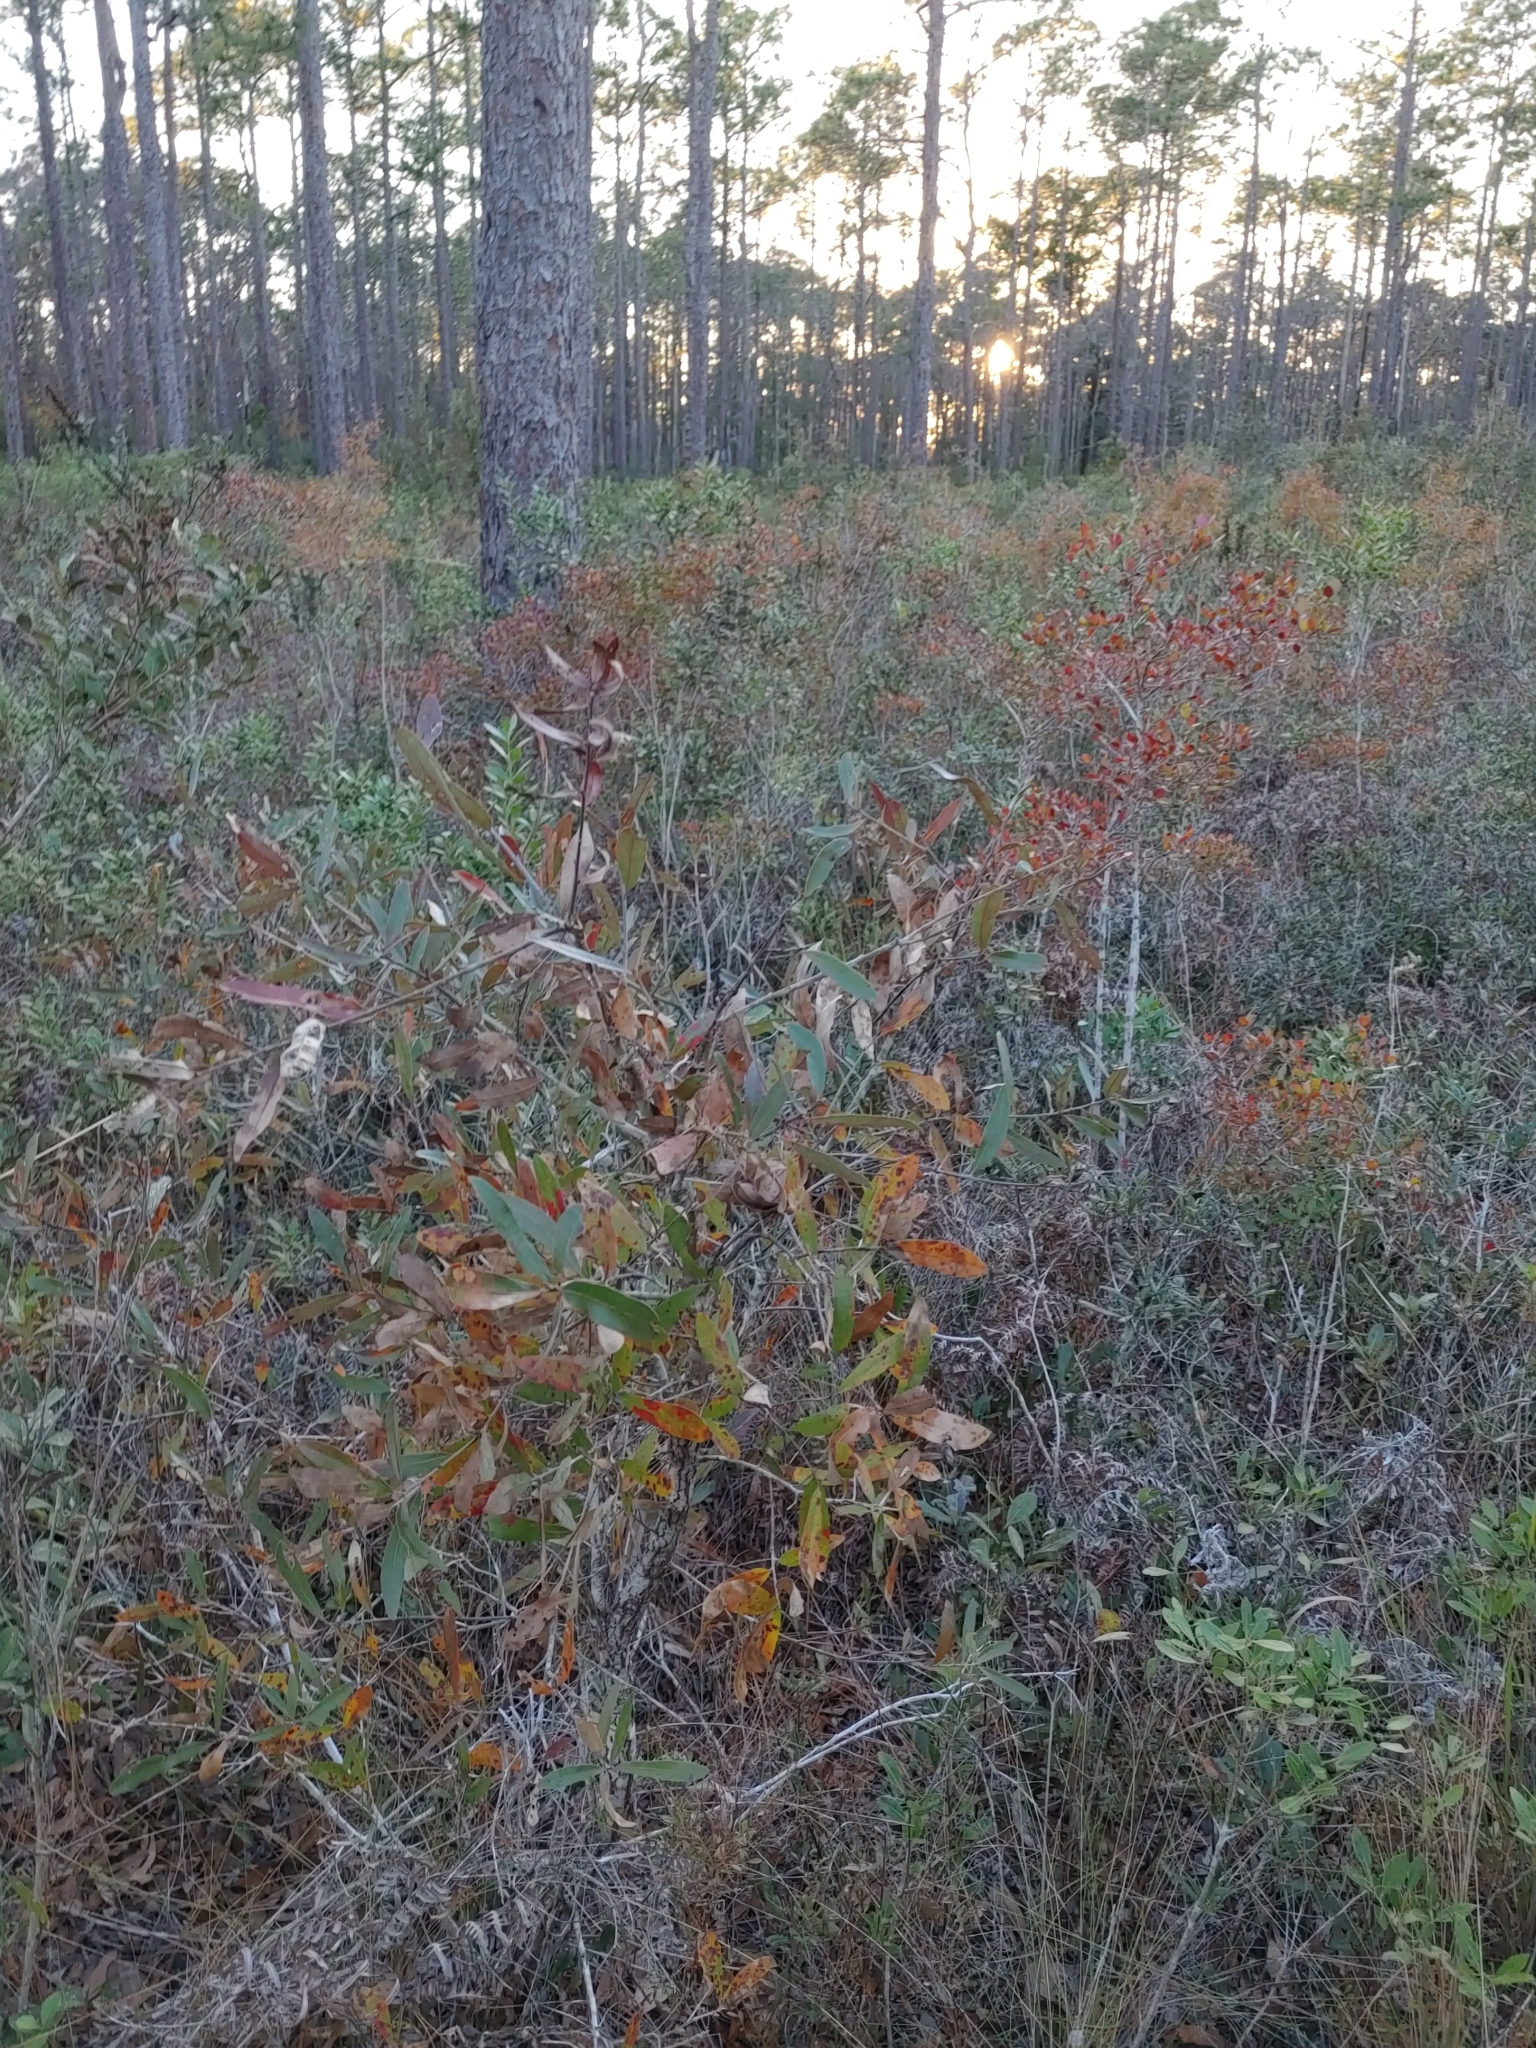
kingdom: Plantae
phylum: Tracheophyta
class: Magnoliopsida
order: Fagales
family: Fagaceae
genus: Quercus
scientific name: Quercus incana
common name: Bluejack oak
